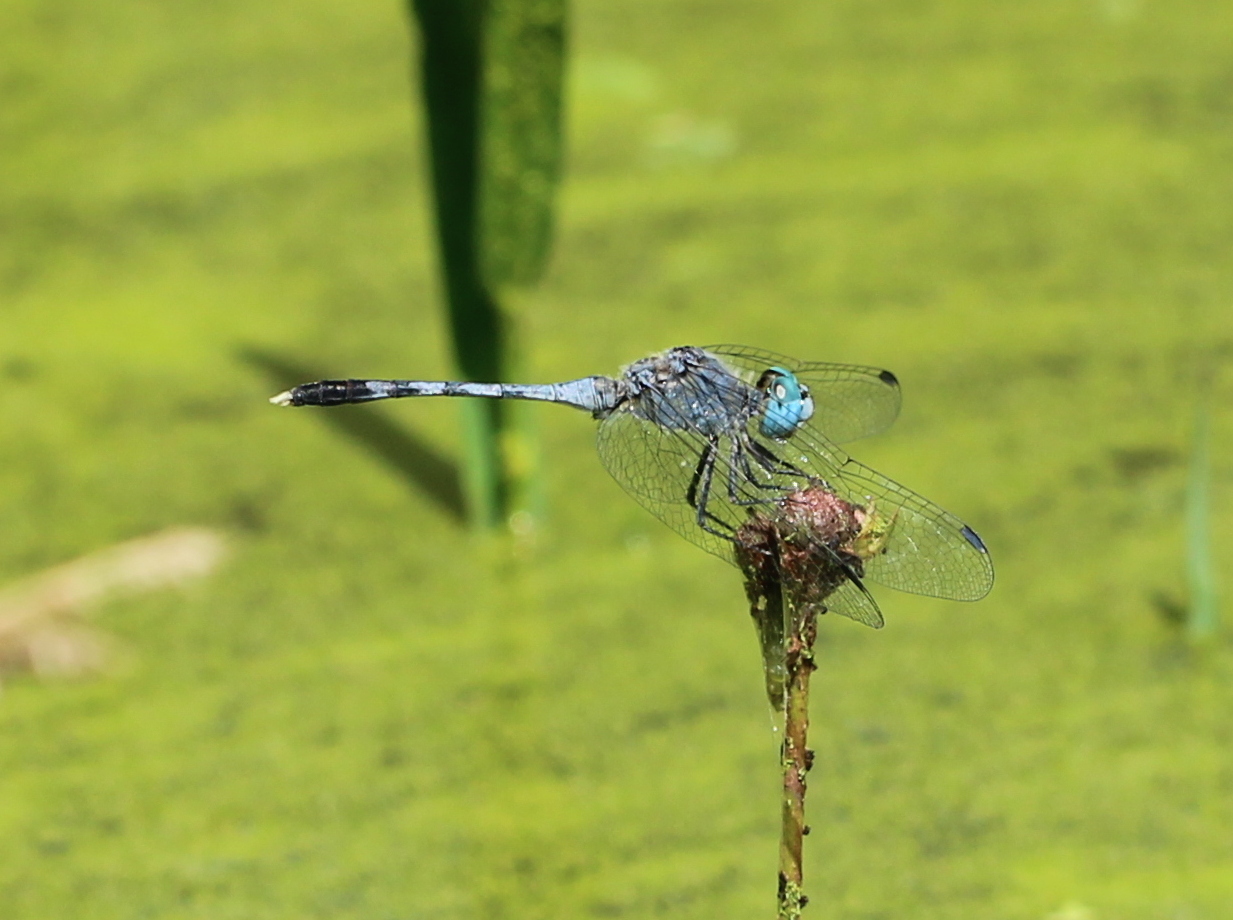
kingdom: Animalia
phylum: Arthropoda
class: Insecta
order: Odonata
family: Libellulidae
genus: Diplacodes
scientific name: Diplacodes trivialis
